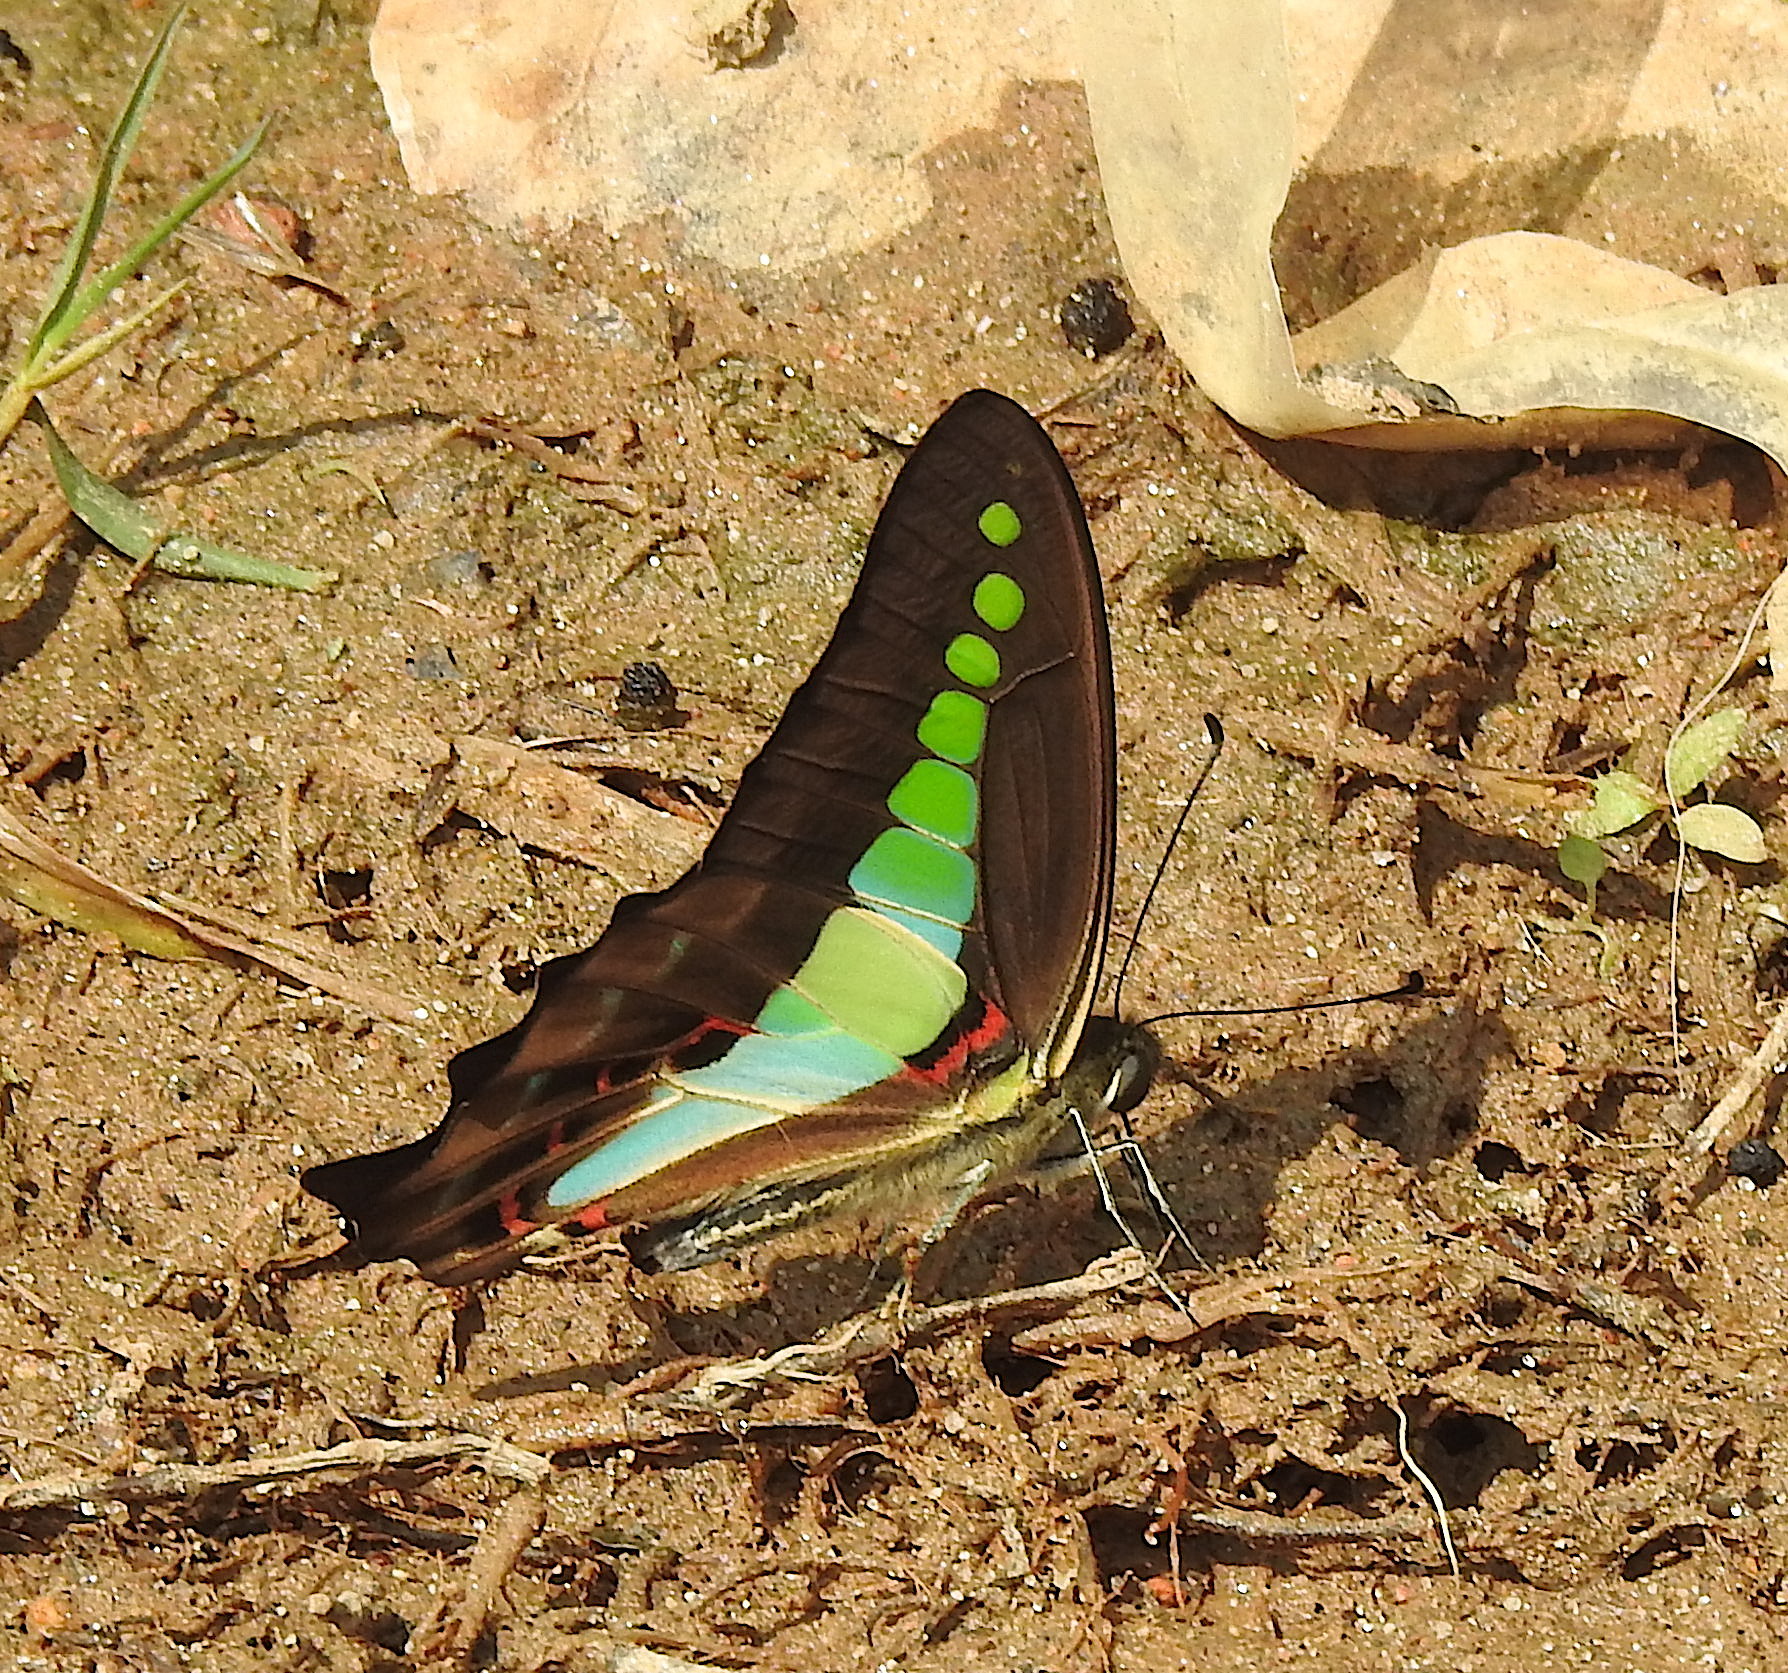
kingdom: Animalia
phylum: Arthropoda
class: Insecta
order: Lepidoptera
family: Papilionidae
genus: Graphium
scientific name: Graphium
